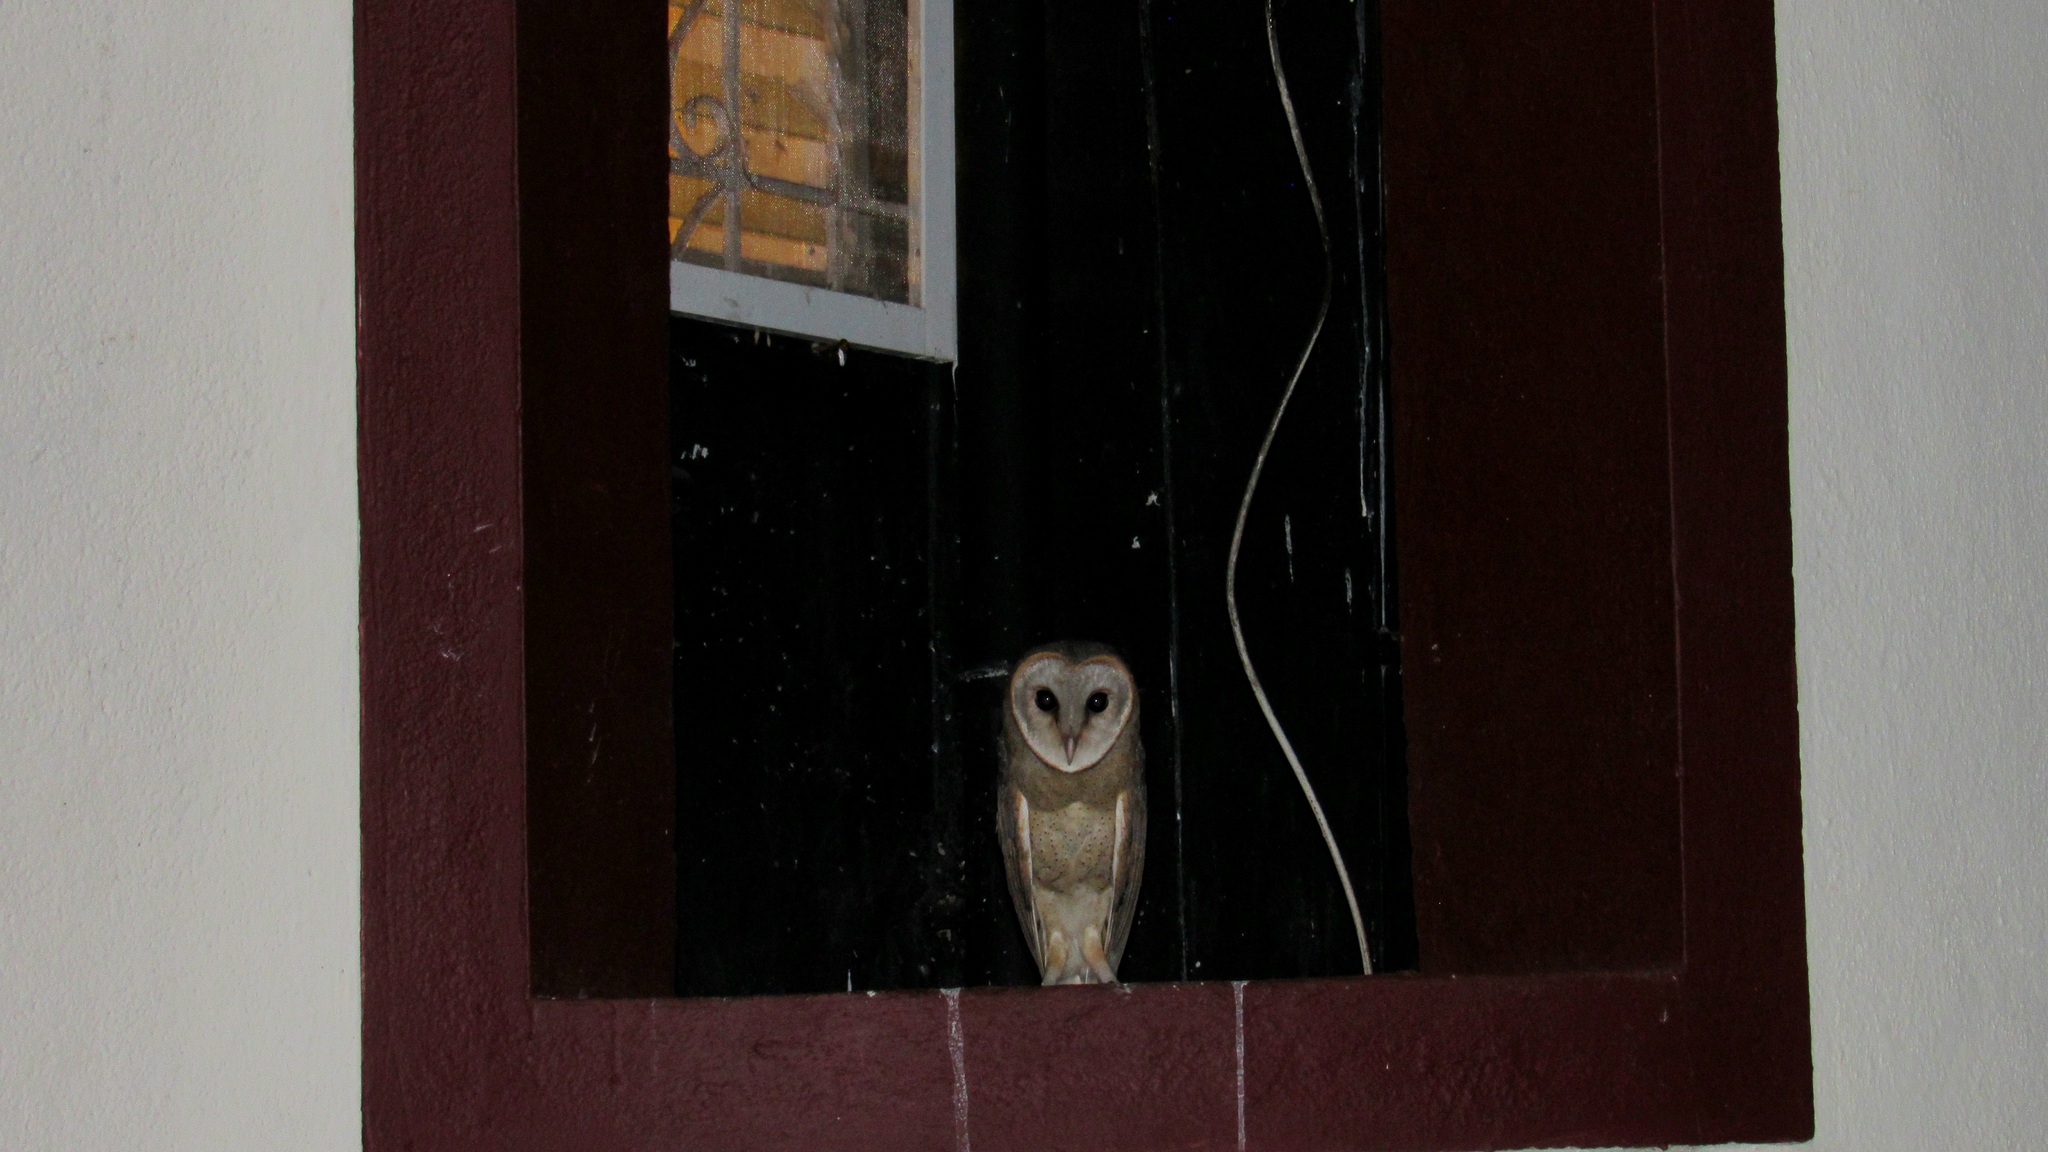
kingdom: Animalia
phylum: Chordata
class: Aves
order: Strigiformes
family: Tytonidae
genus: Tyto
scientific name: Tyto alba
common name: Barn owl
